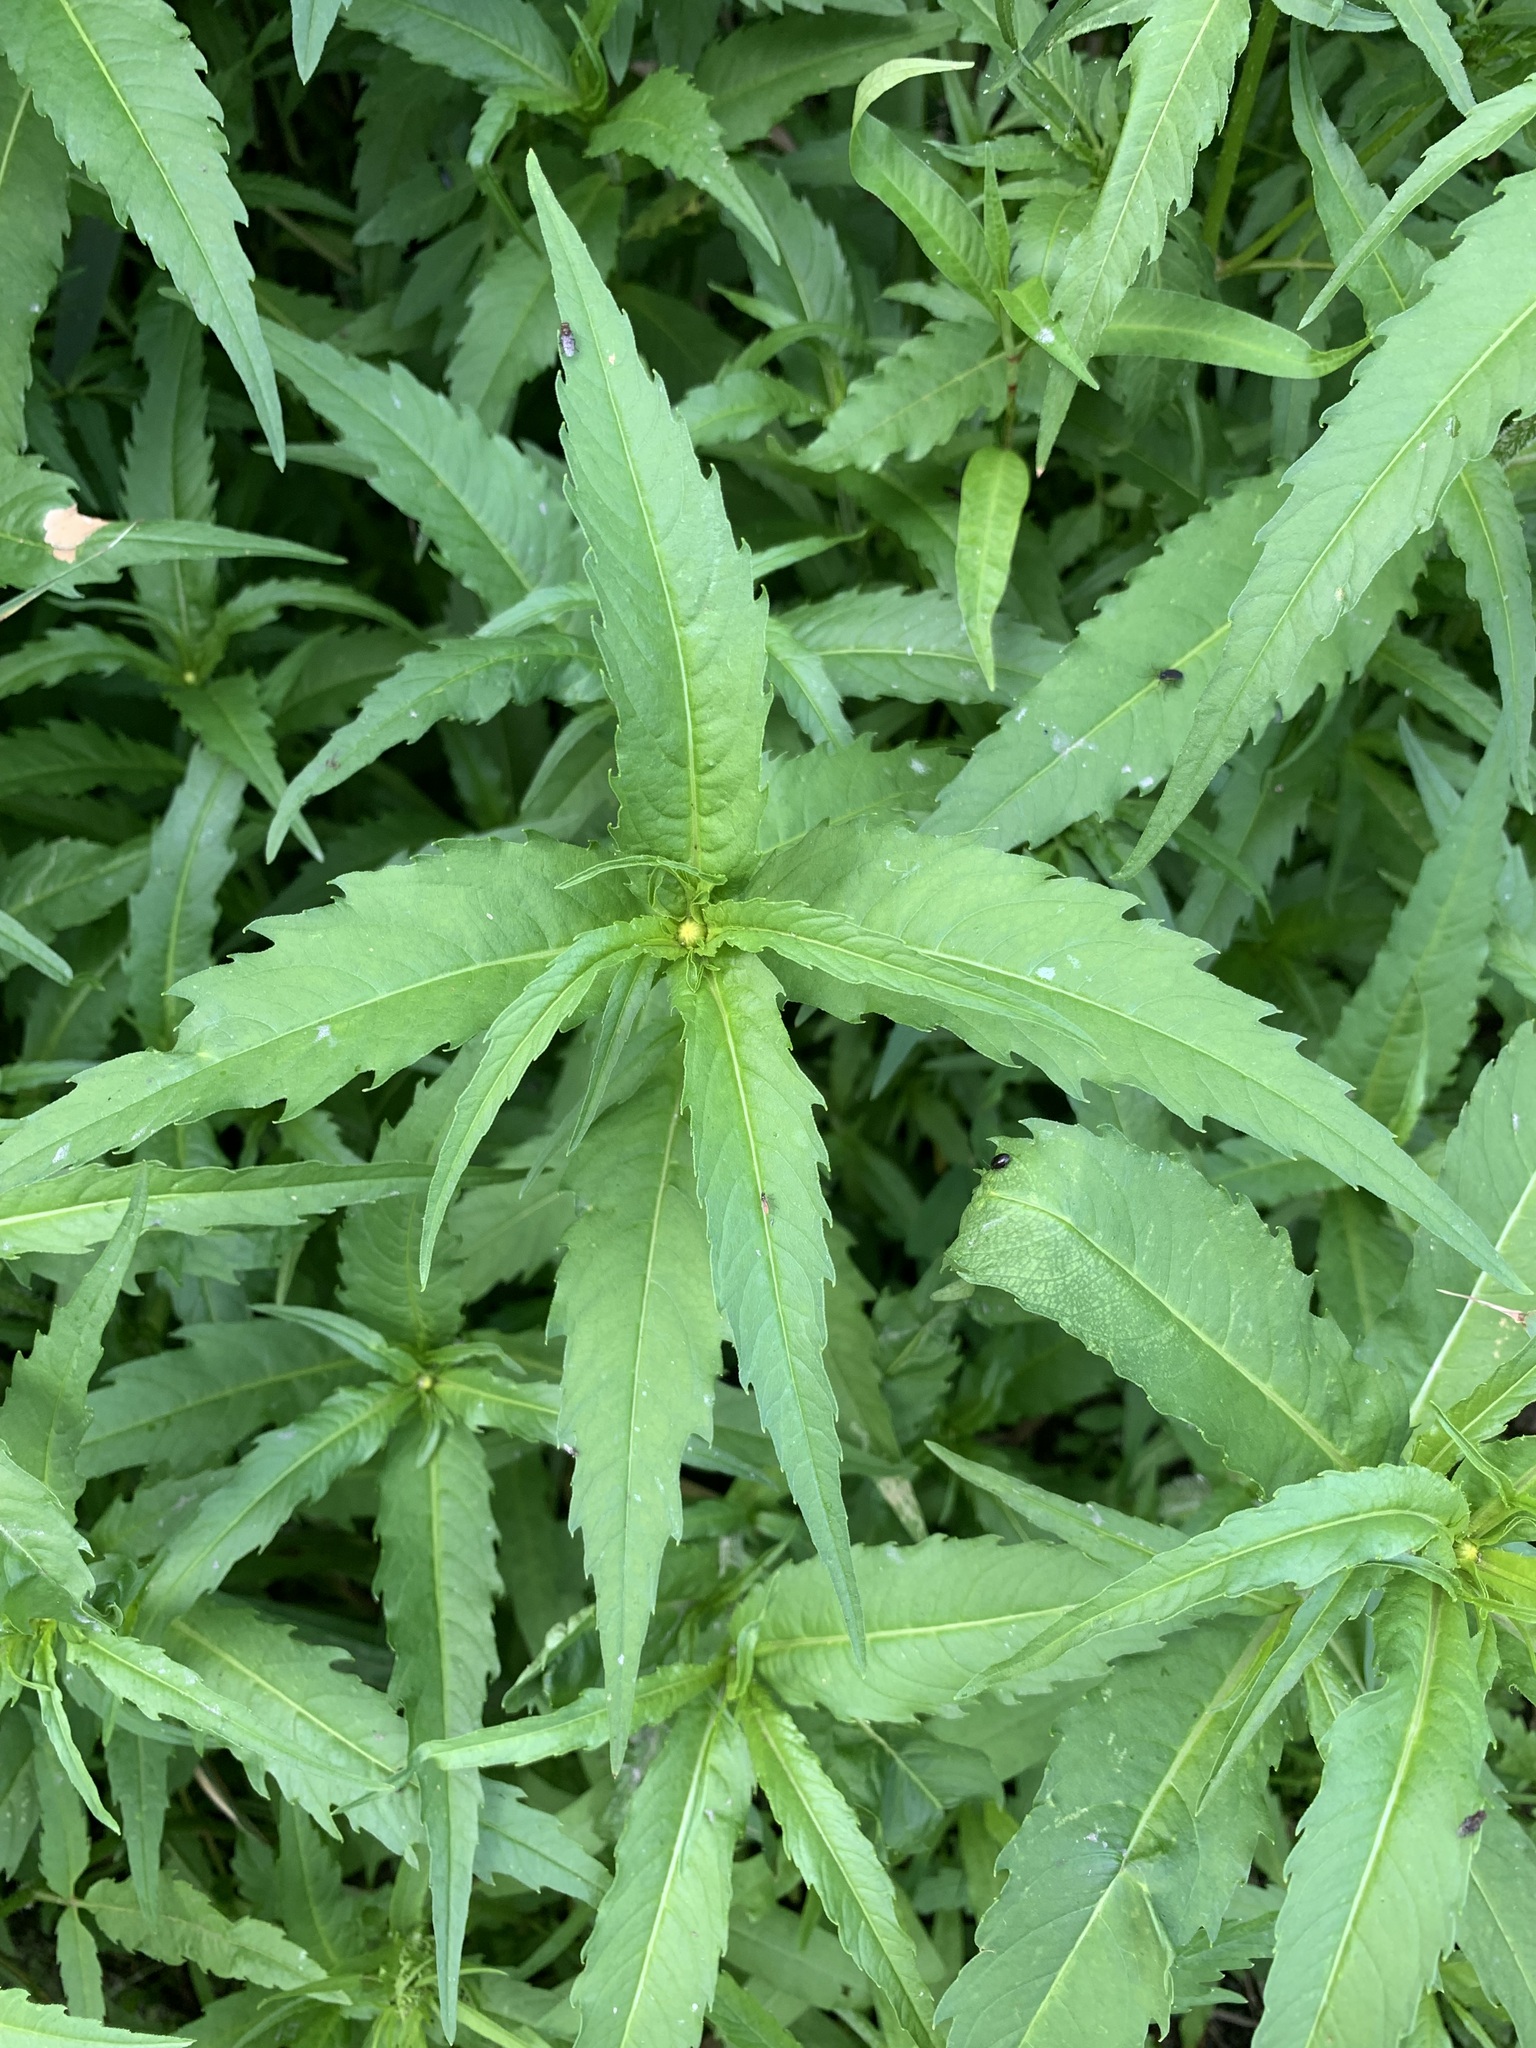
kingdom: Plantae
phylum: Tracheophyta
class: Magnoliopsida
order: Asterales
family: Asteraceae
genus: Bidens
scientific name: Bidens cernua
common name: Nodding bur-marigold
